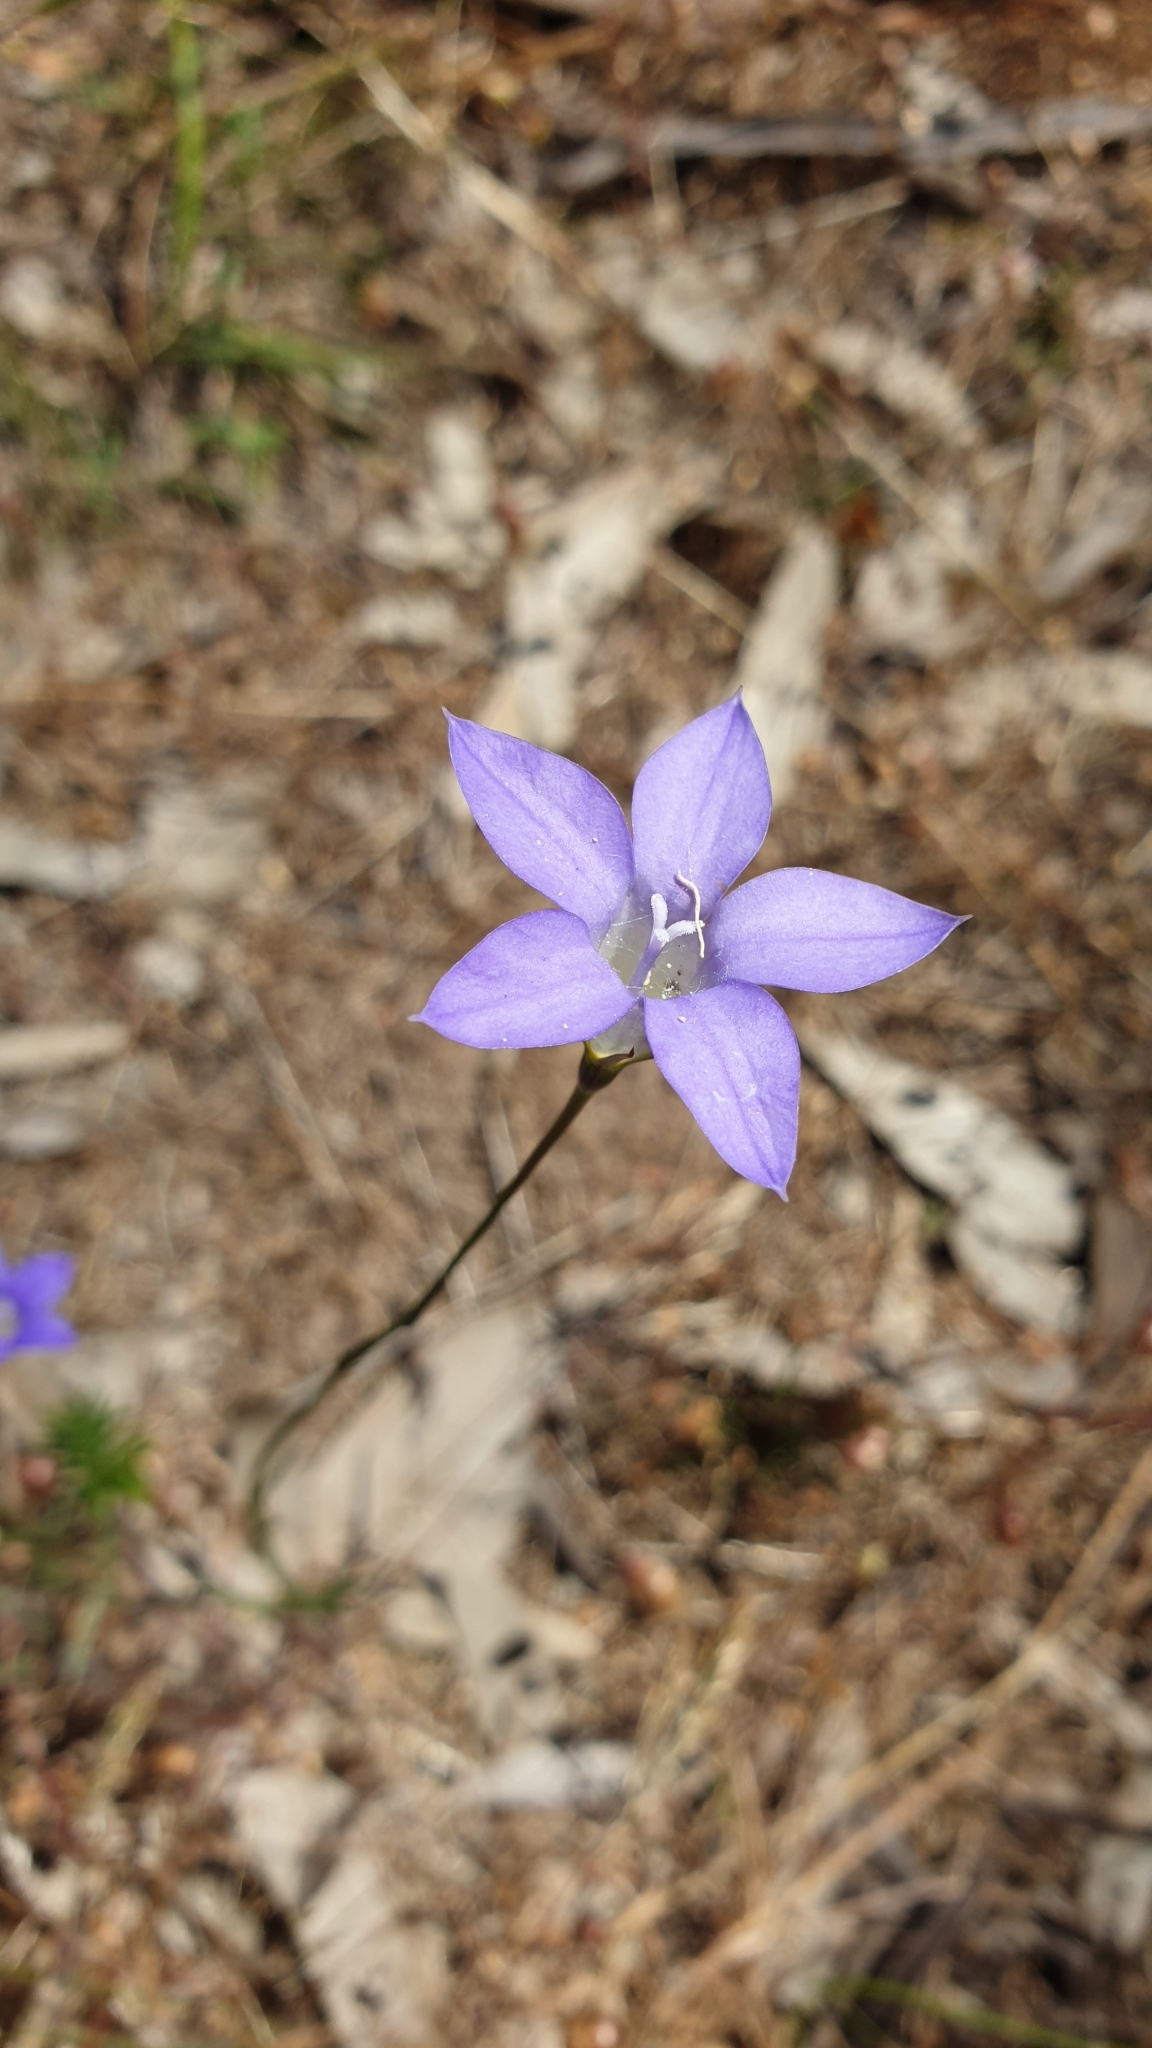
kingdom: Plantae
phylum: Tracheophyta
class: Magnoliopsida
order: Asterales
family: Campanulaceae
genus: Wahlenbergia
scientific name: Wahlenbergia stricta
